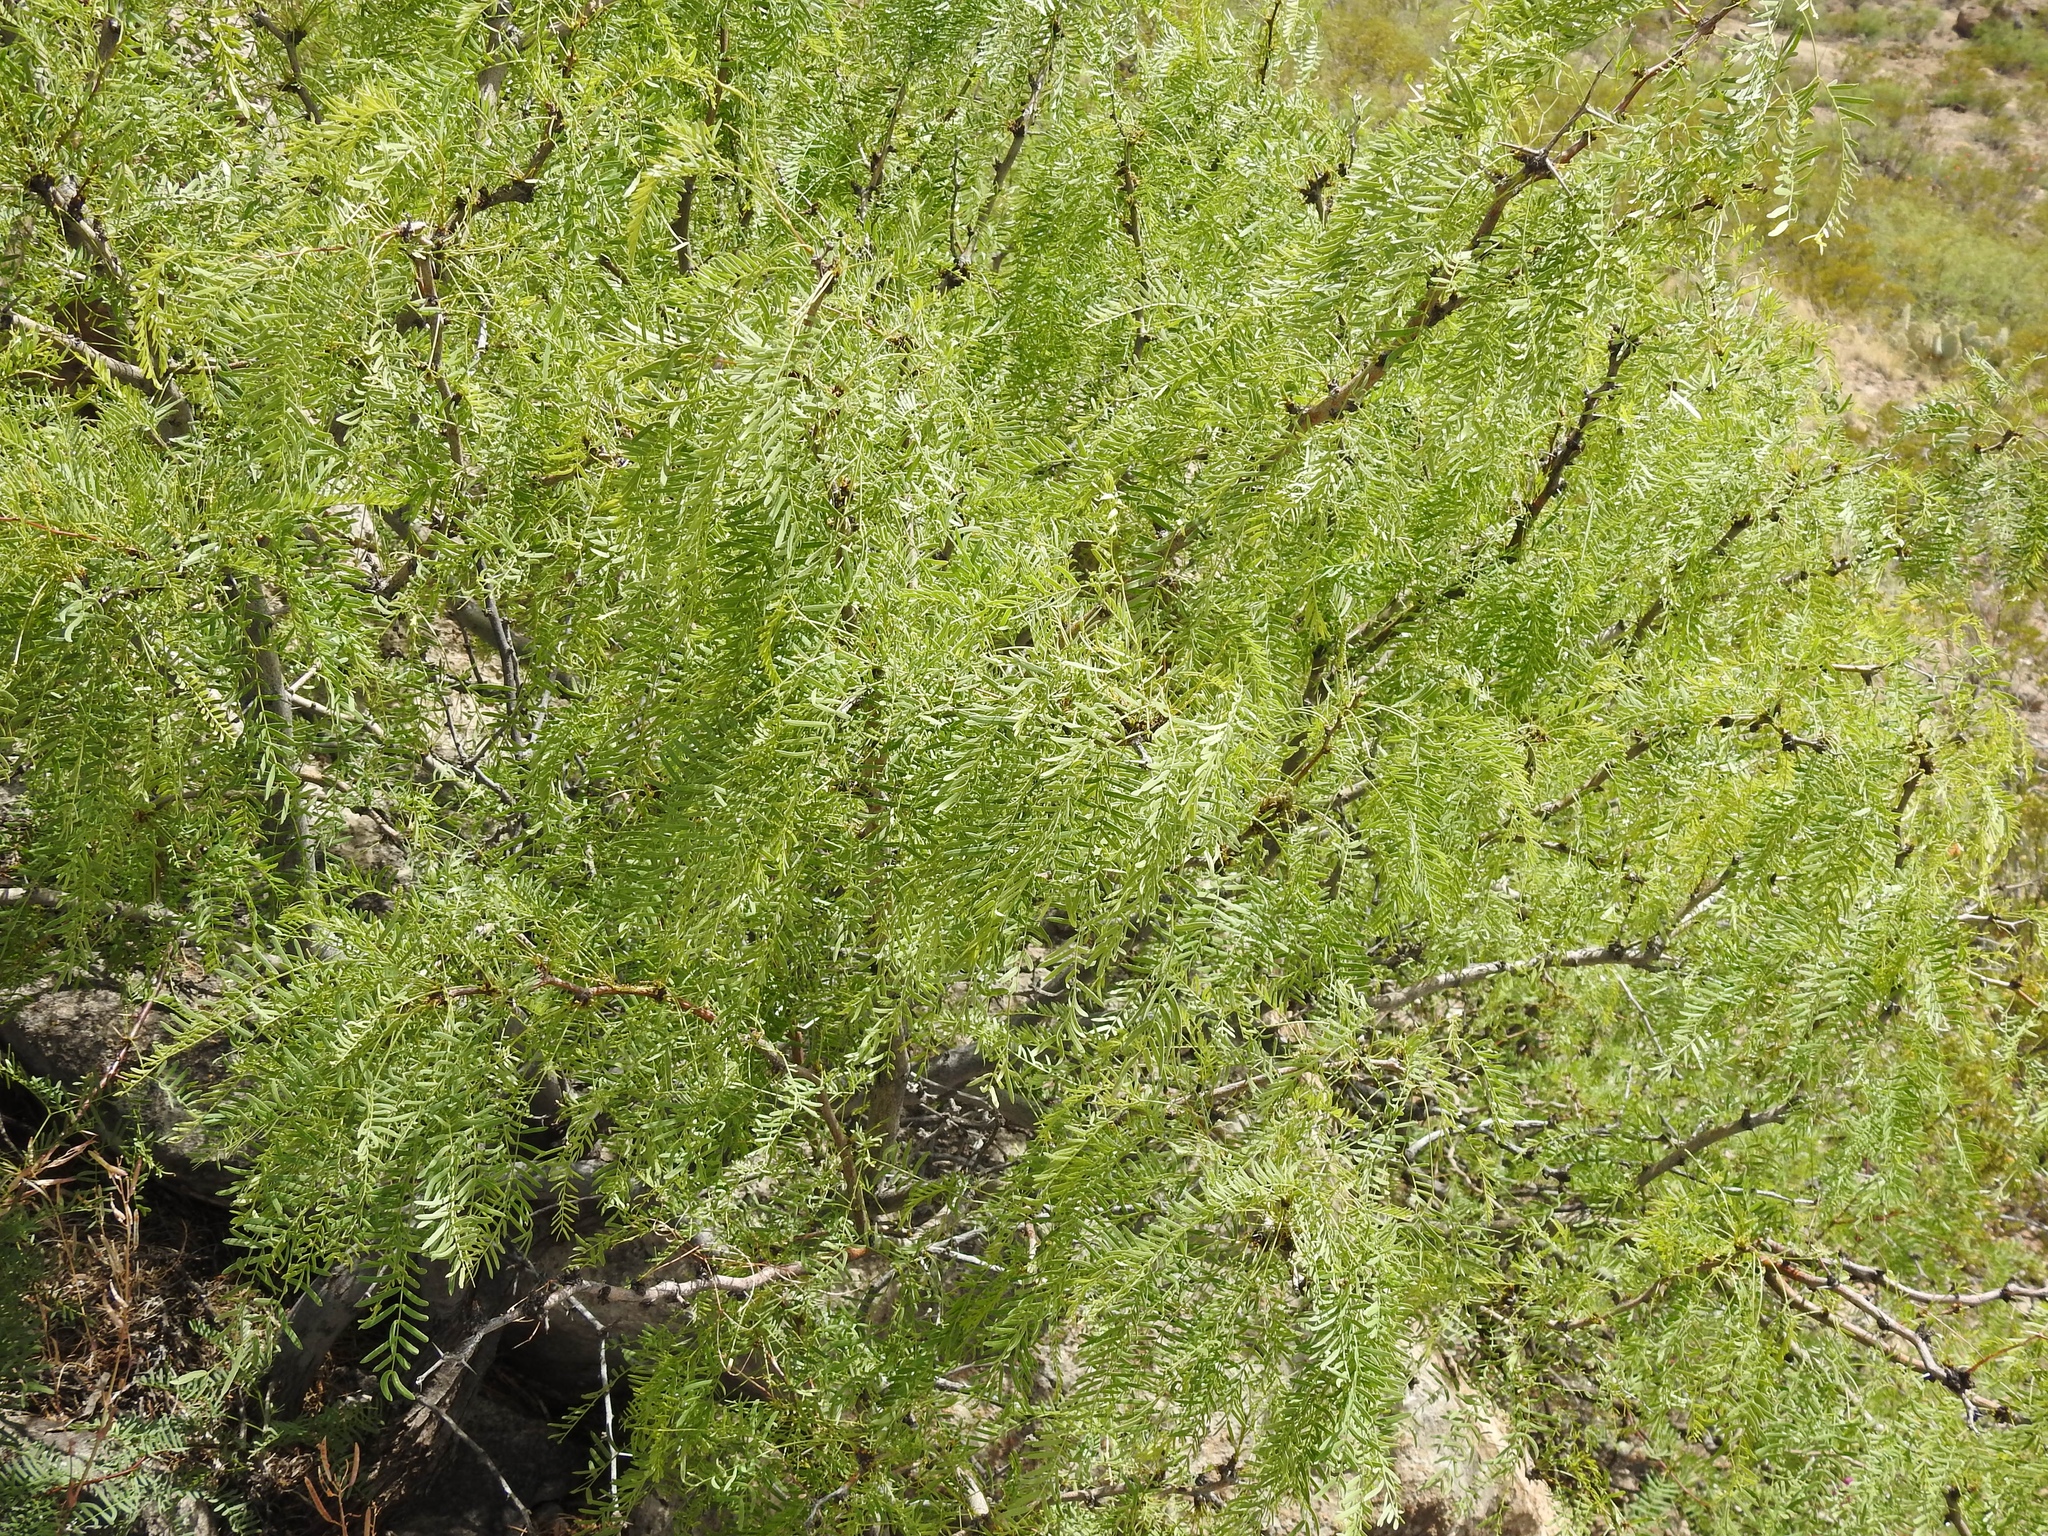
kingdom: Plantae
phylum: Tracheophyta
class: Magnoliopsida
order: Fabales
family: Fabaceae
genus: Prosopis
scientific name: Prosopis glandulosa
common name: Honey mesquite
